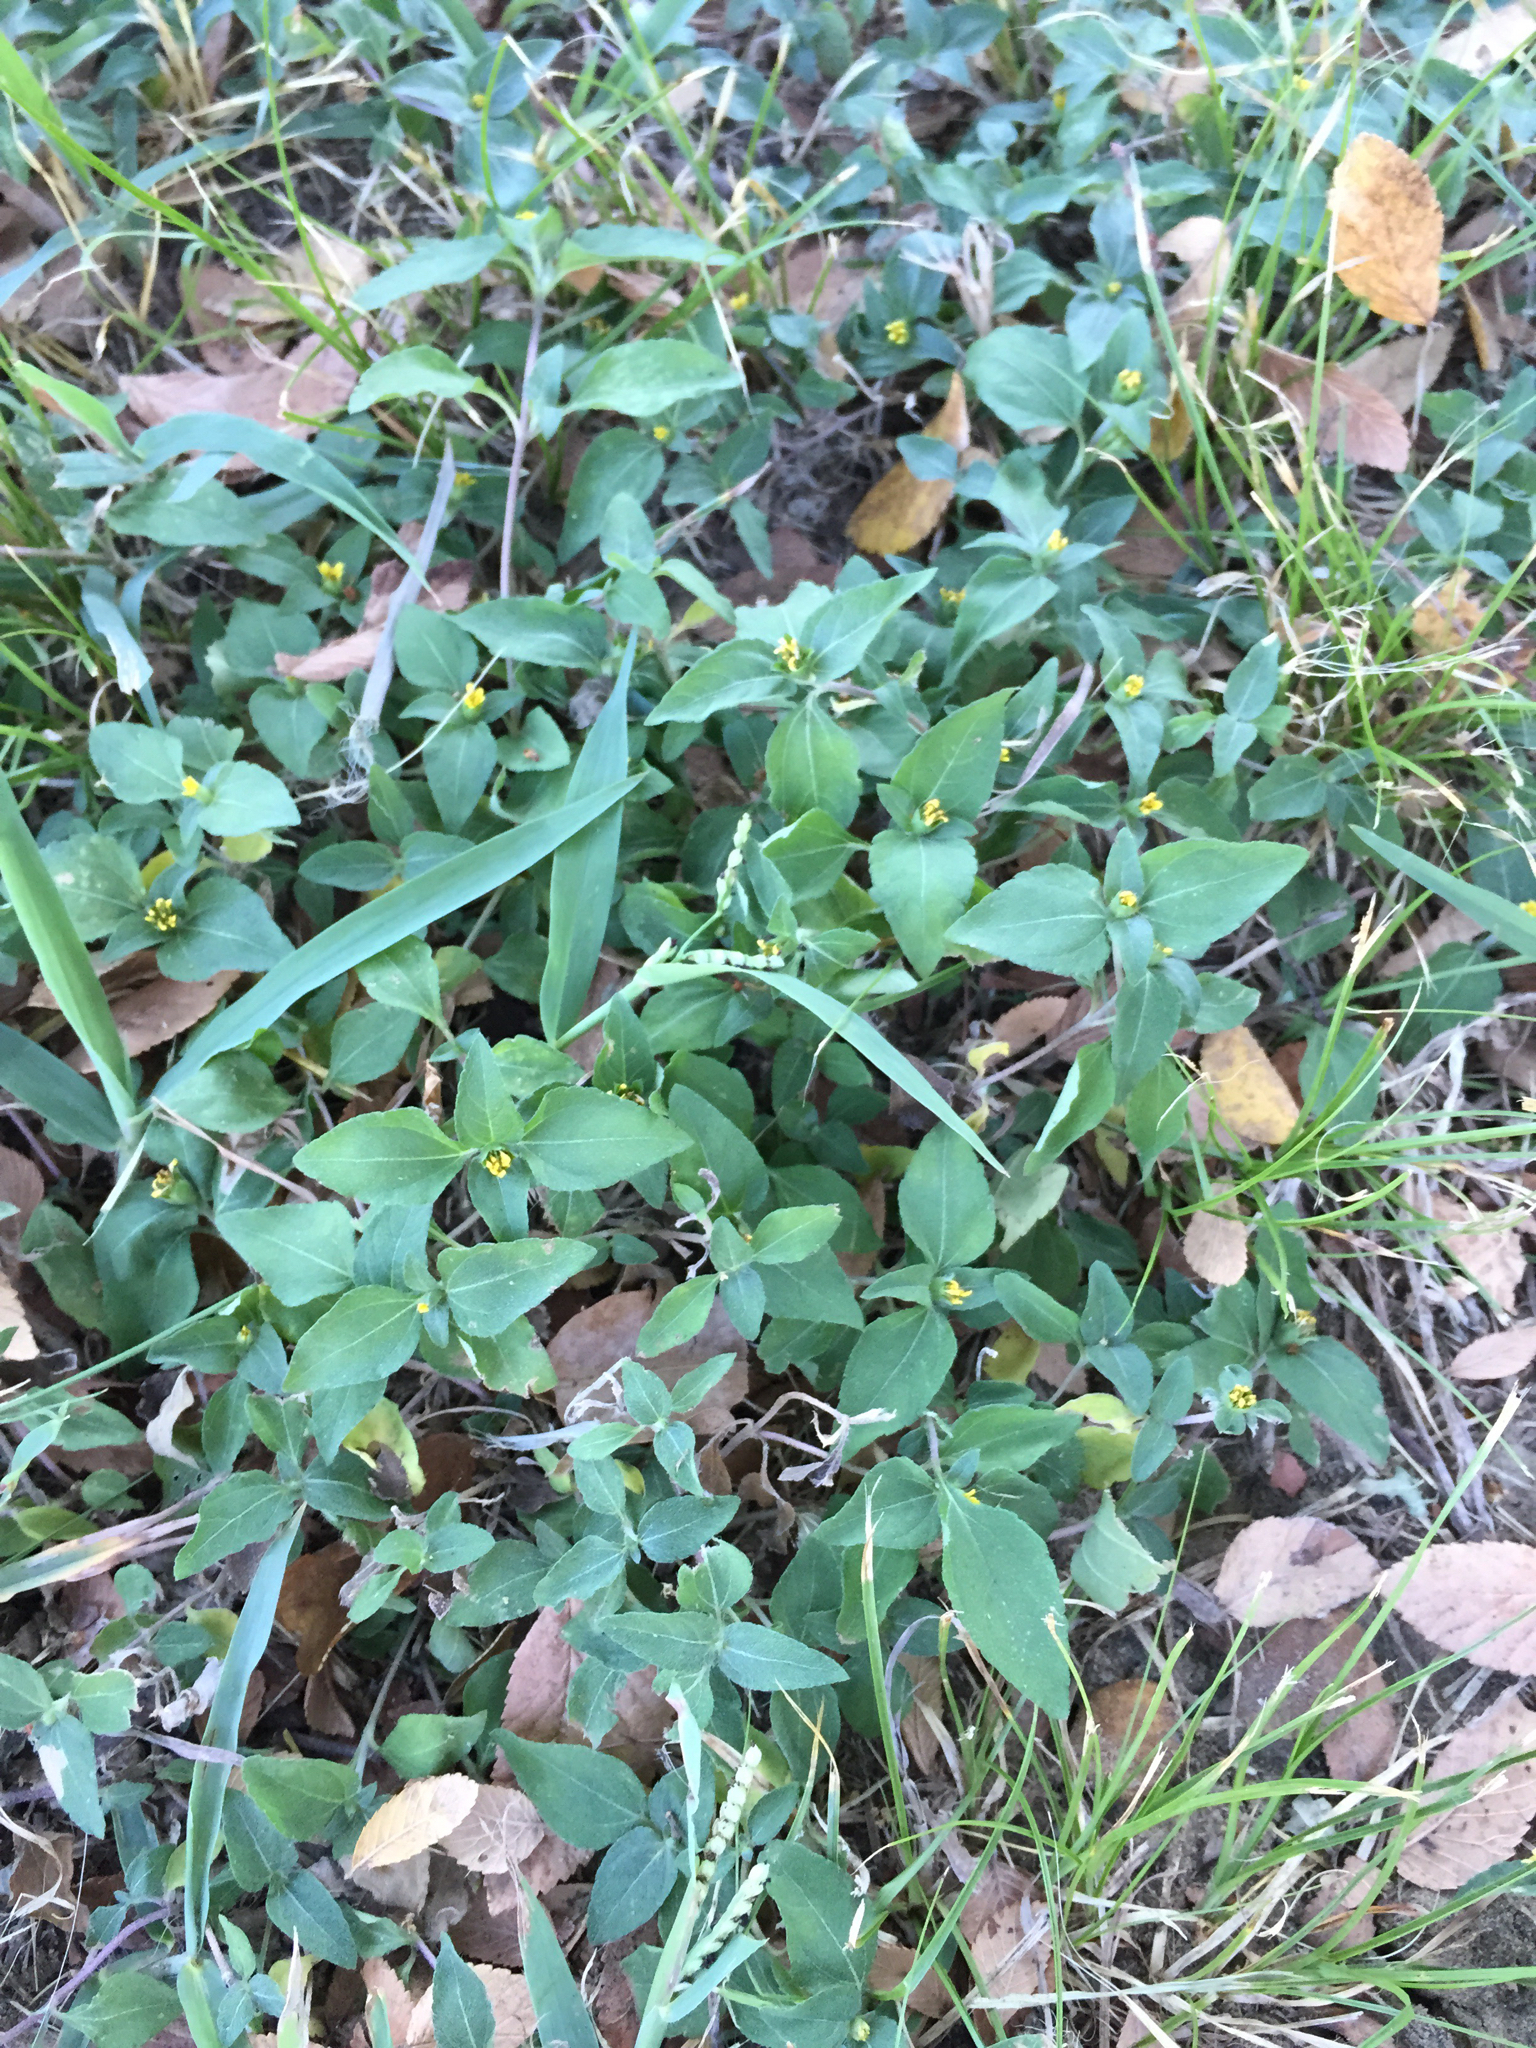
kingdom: Plantae
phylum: Tracheophyta
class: Magnoliopsida
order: Asterales
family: Asteraceae
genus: Calyptocarpus
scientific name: Calyptocarpus vialis
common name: Straggler daisy
